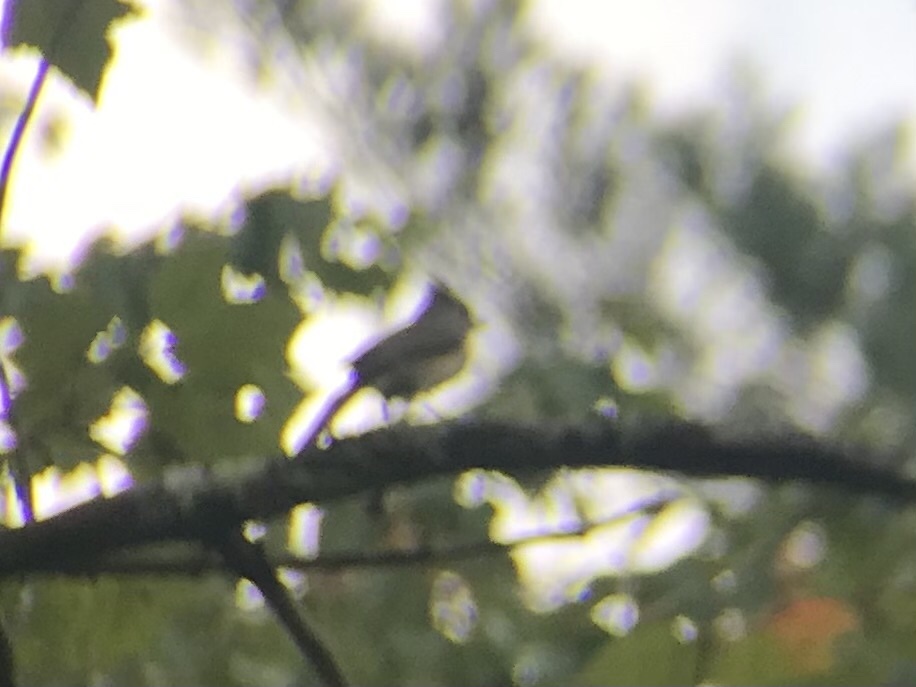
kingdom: Animalia
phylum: Chordata
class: Aves
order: Passeriformes
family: Paridae
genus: Baeolophus
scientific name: Baeolophus bicolor
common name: Tufted titmouse
